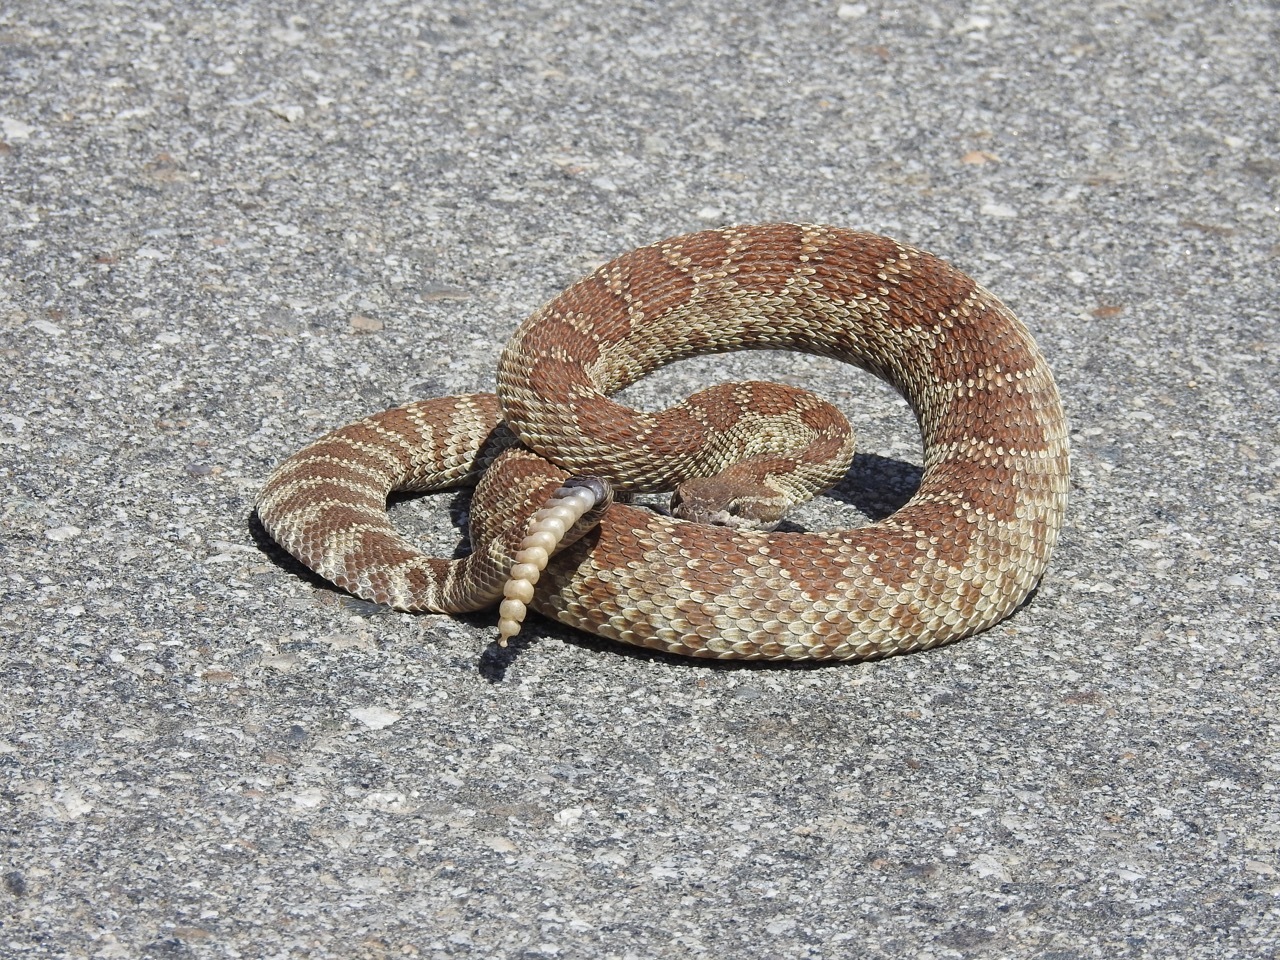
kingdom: Animalia
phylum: Chordata
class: Squamata
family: Viperidae
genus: Crotalus
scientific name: Crotalus oreganus
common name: Abyssus
